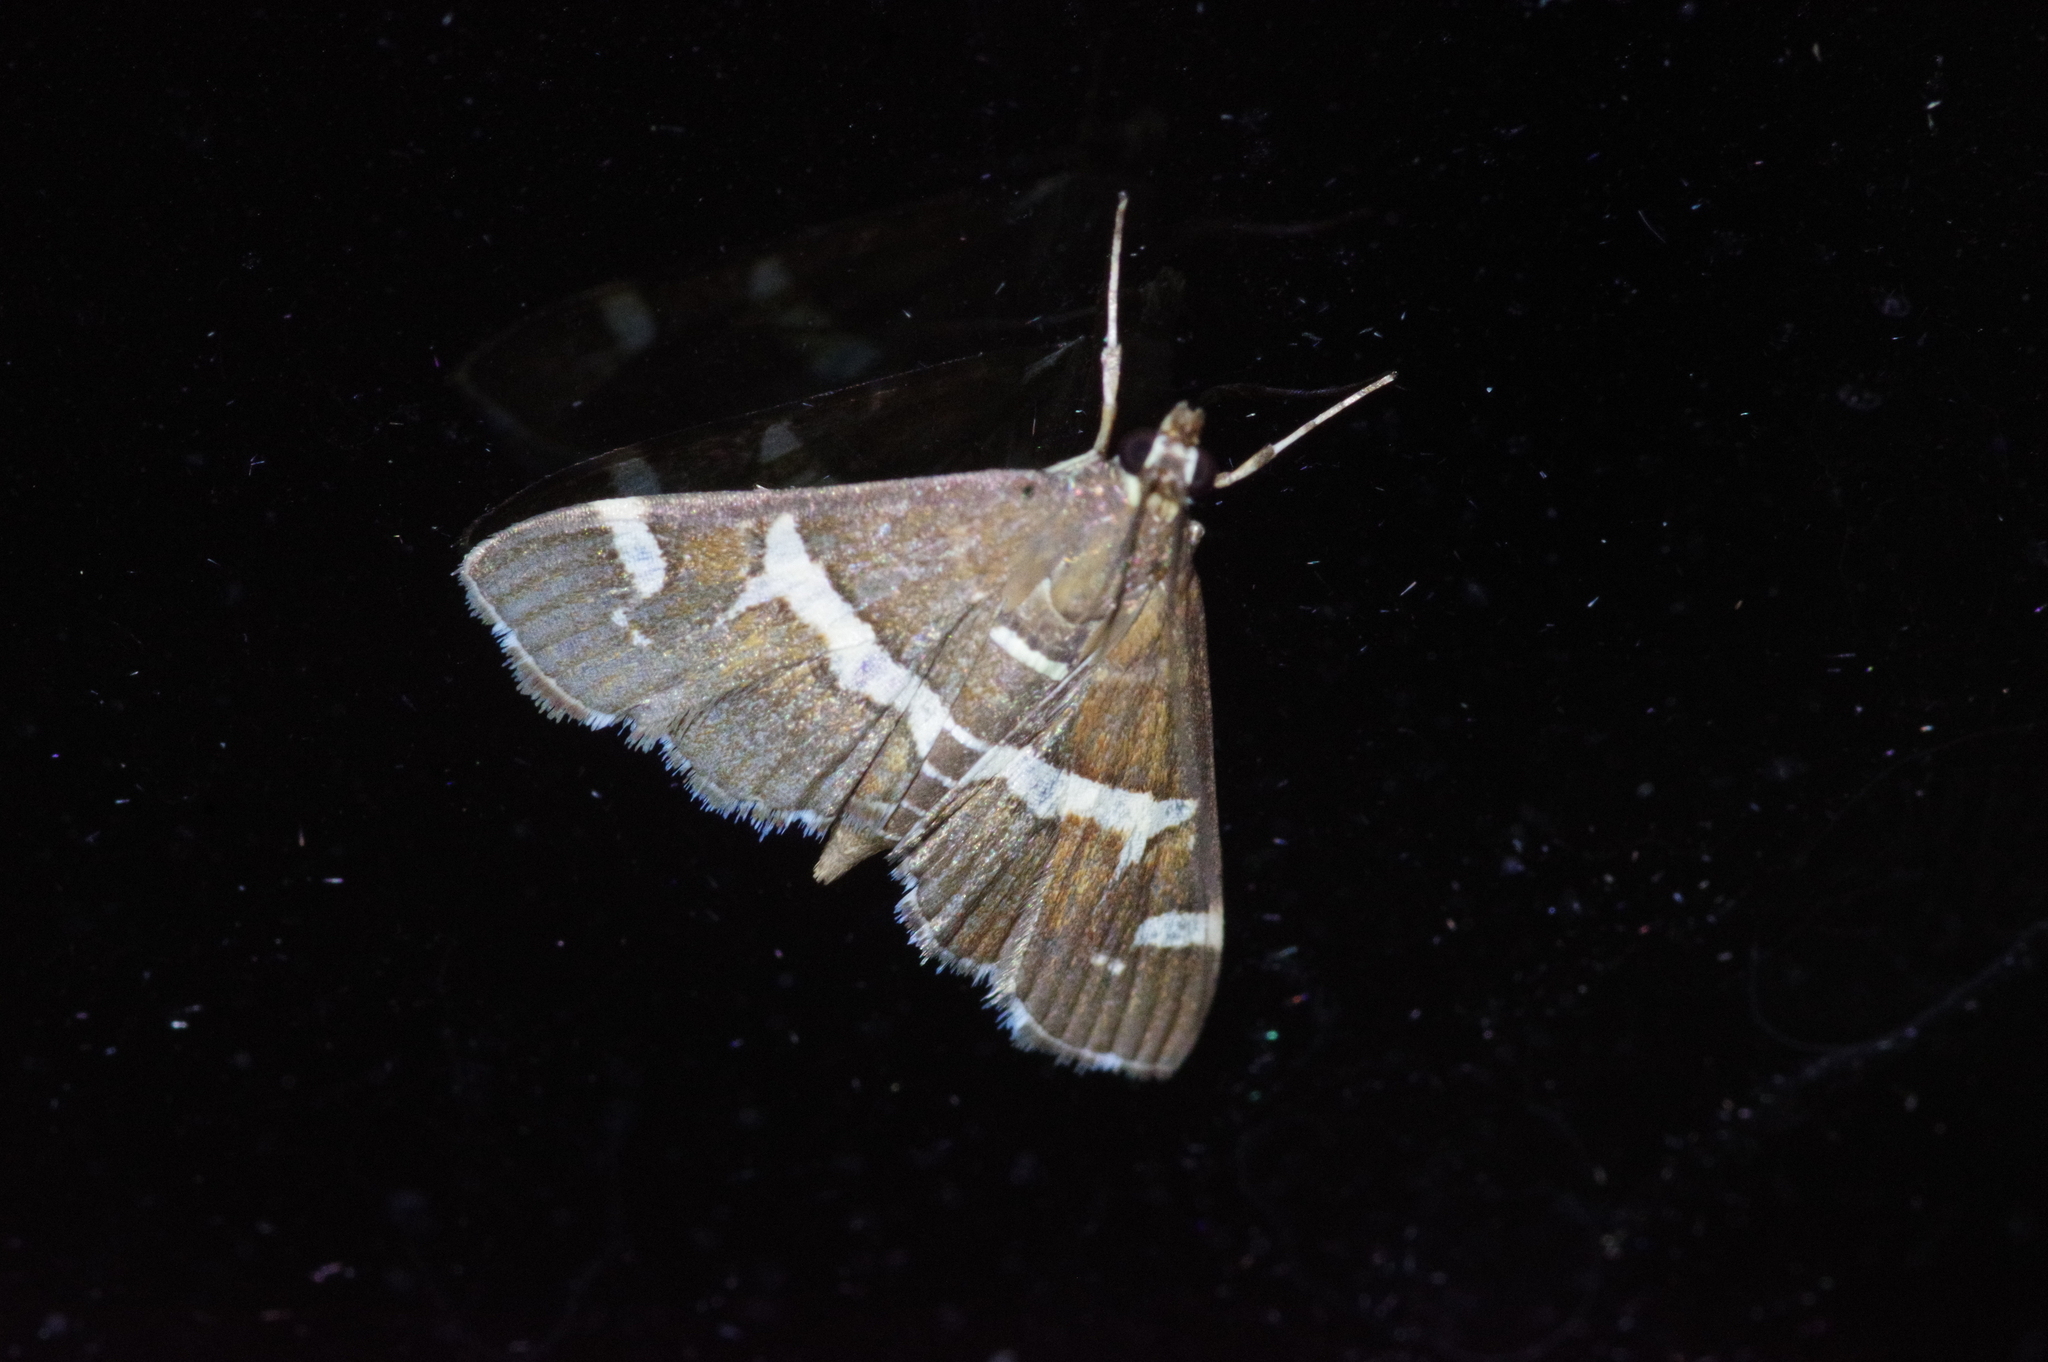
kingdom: Animalia
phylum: Arthropoda
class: Insecta
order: Lepidoptera
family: Crambidae
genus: Spoladea
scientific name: Spoladea recurvalis
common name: Beet webworm moth
